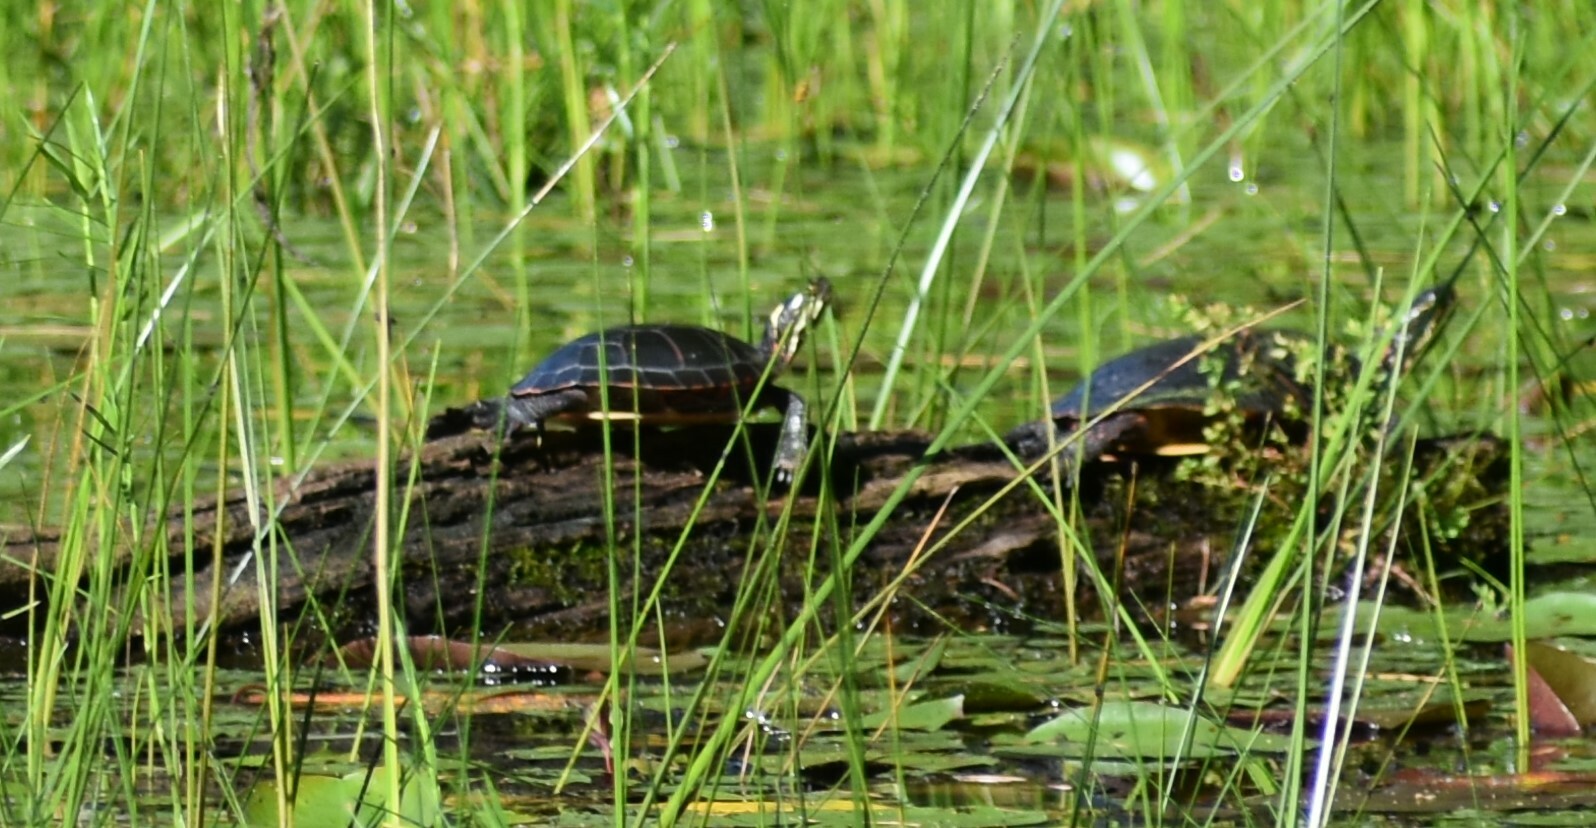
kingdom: Animalia
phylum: Chordata
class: Testudines
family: Emydidae
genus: Chrysemys
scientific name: Chrysemys picta
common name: Painted turtle
